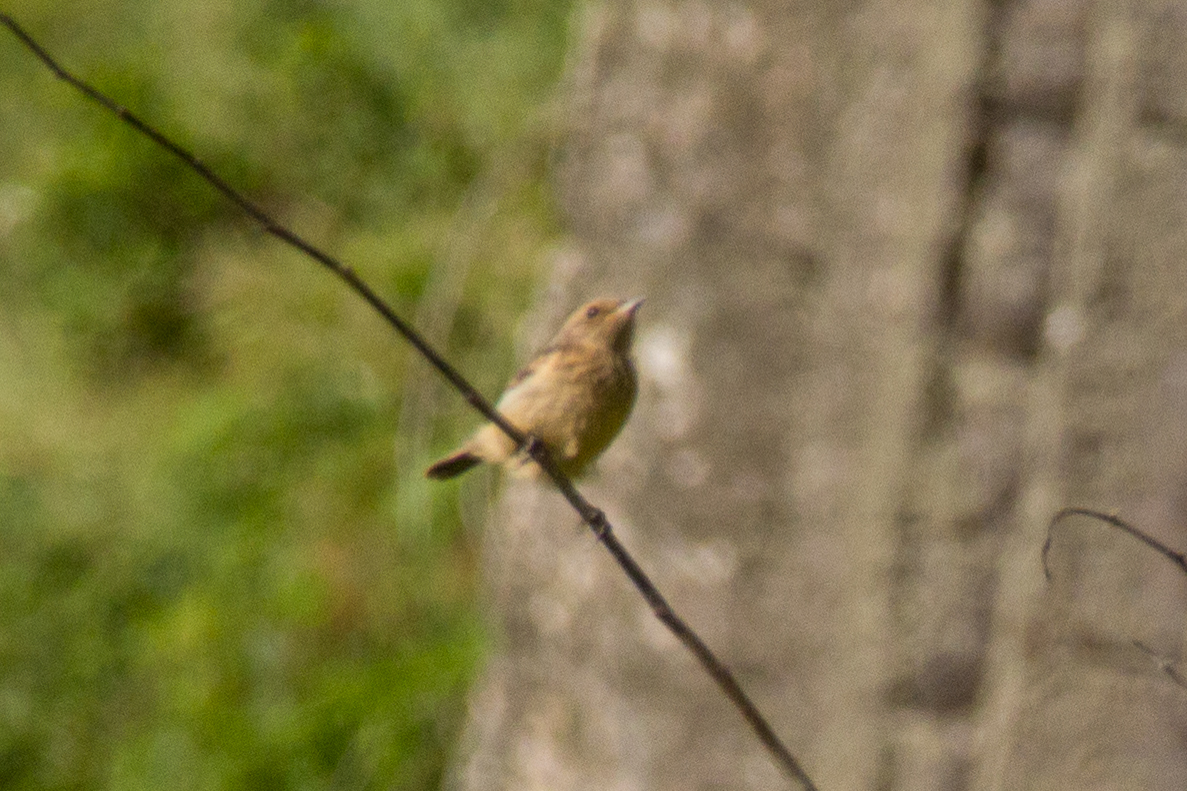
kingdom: Animalia
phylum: Chordata
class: Aves
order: Passeriformes
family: Muscicapidae
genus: Saxicola
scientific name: Saxicola rubicola
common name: European stonechat
